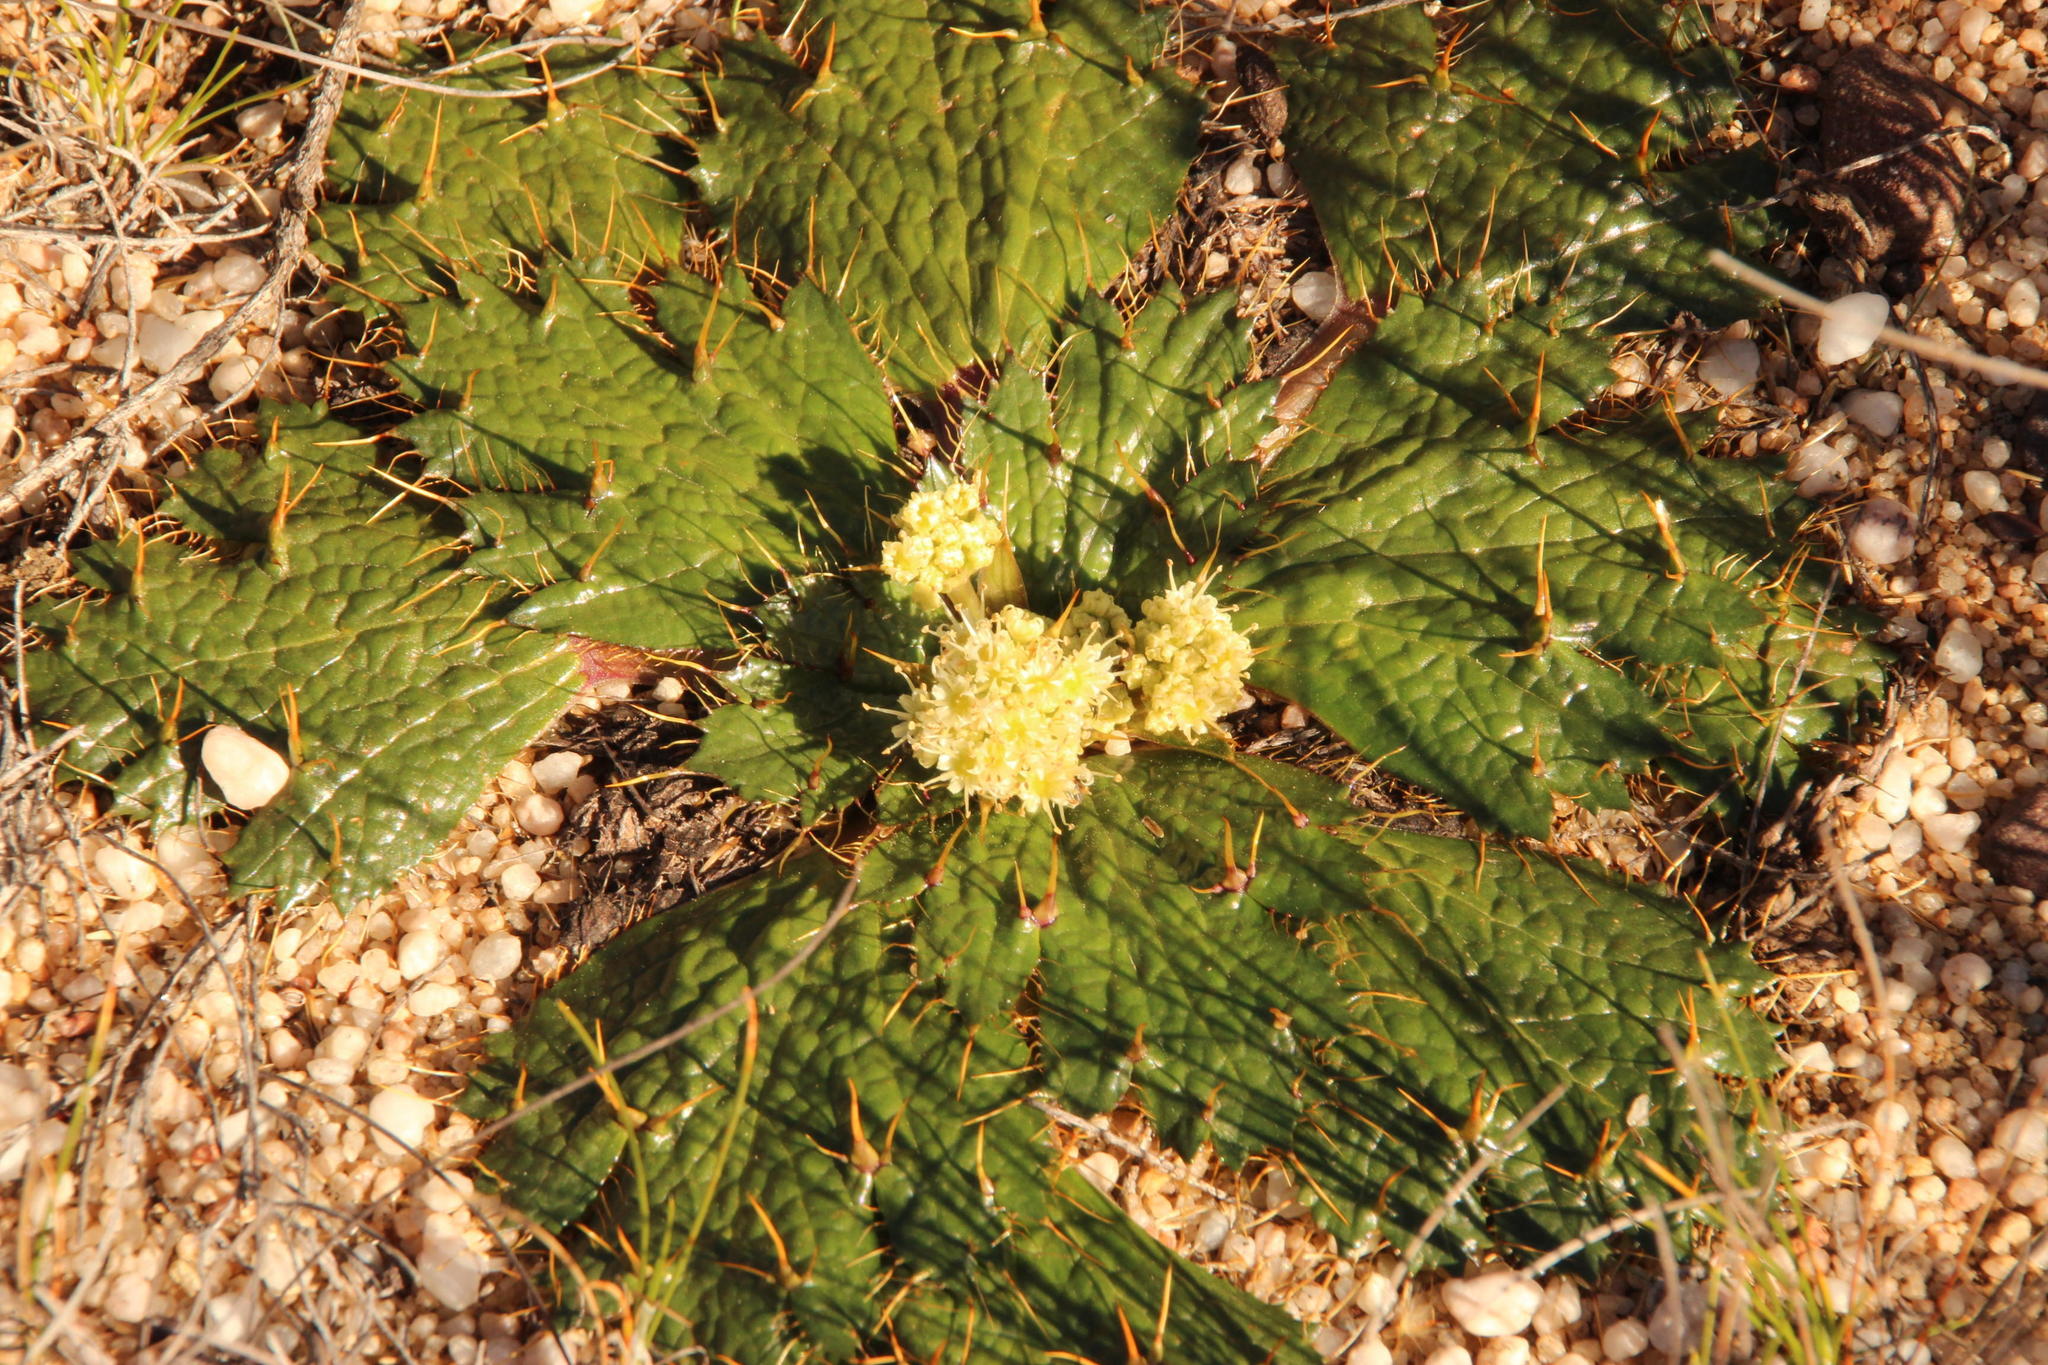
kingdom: Plantae
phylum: Tracheophyta
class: Magnoliopsida
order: Apiales
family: Apiaceae
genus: Arctopus
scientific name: Arctopus echinatus
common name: Platdoring
